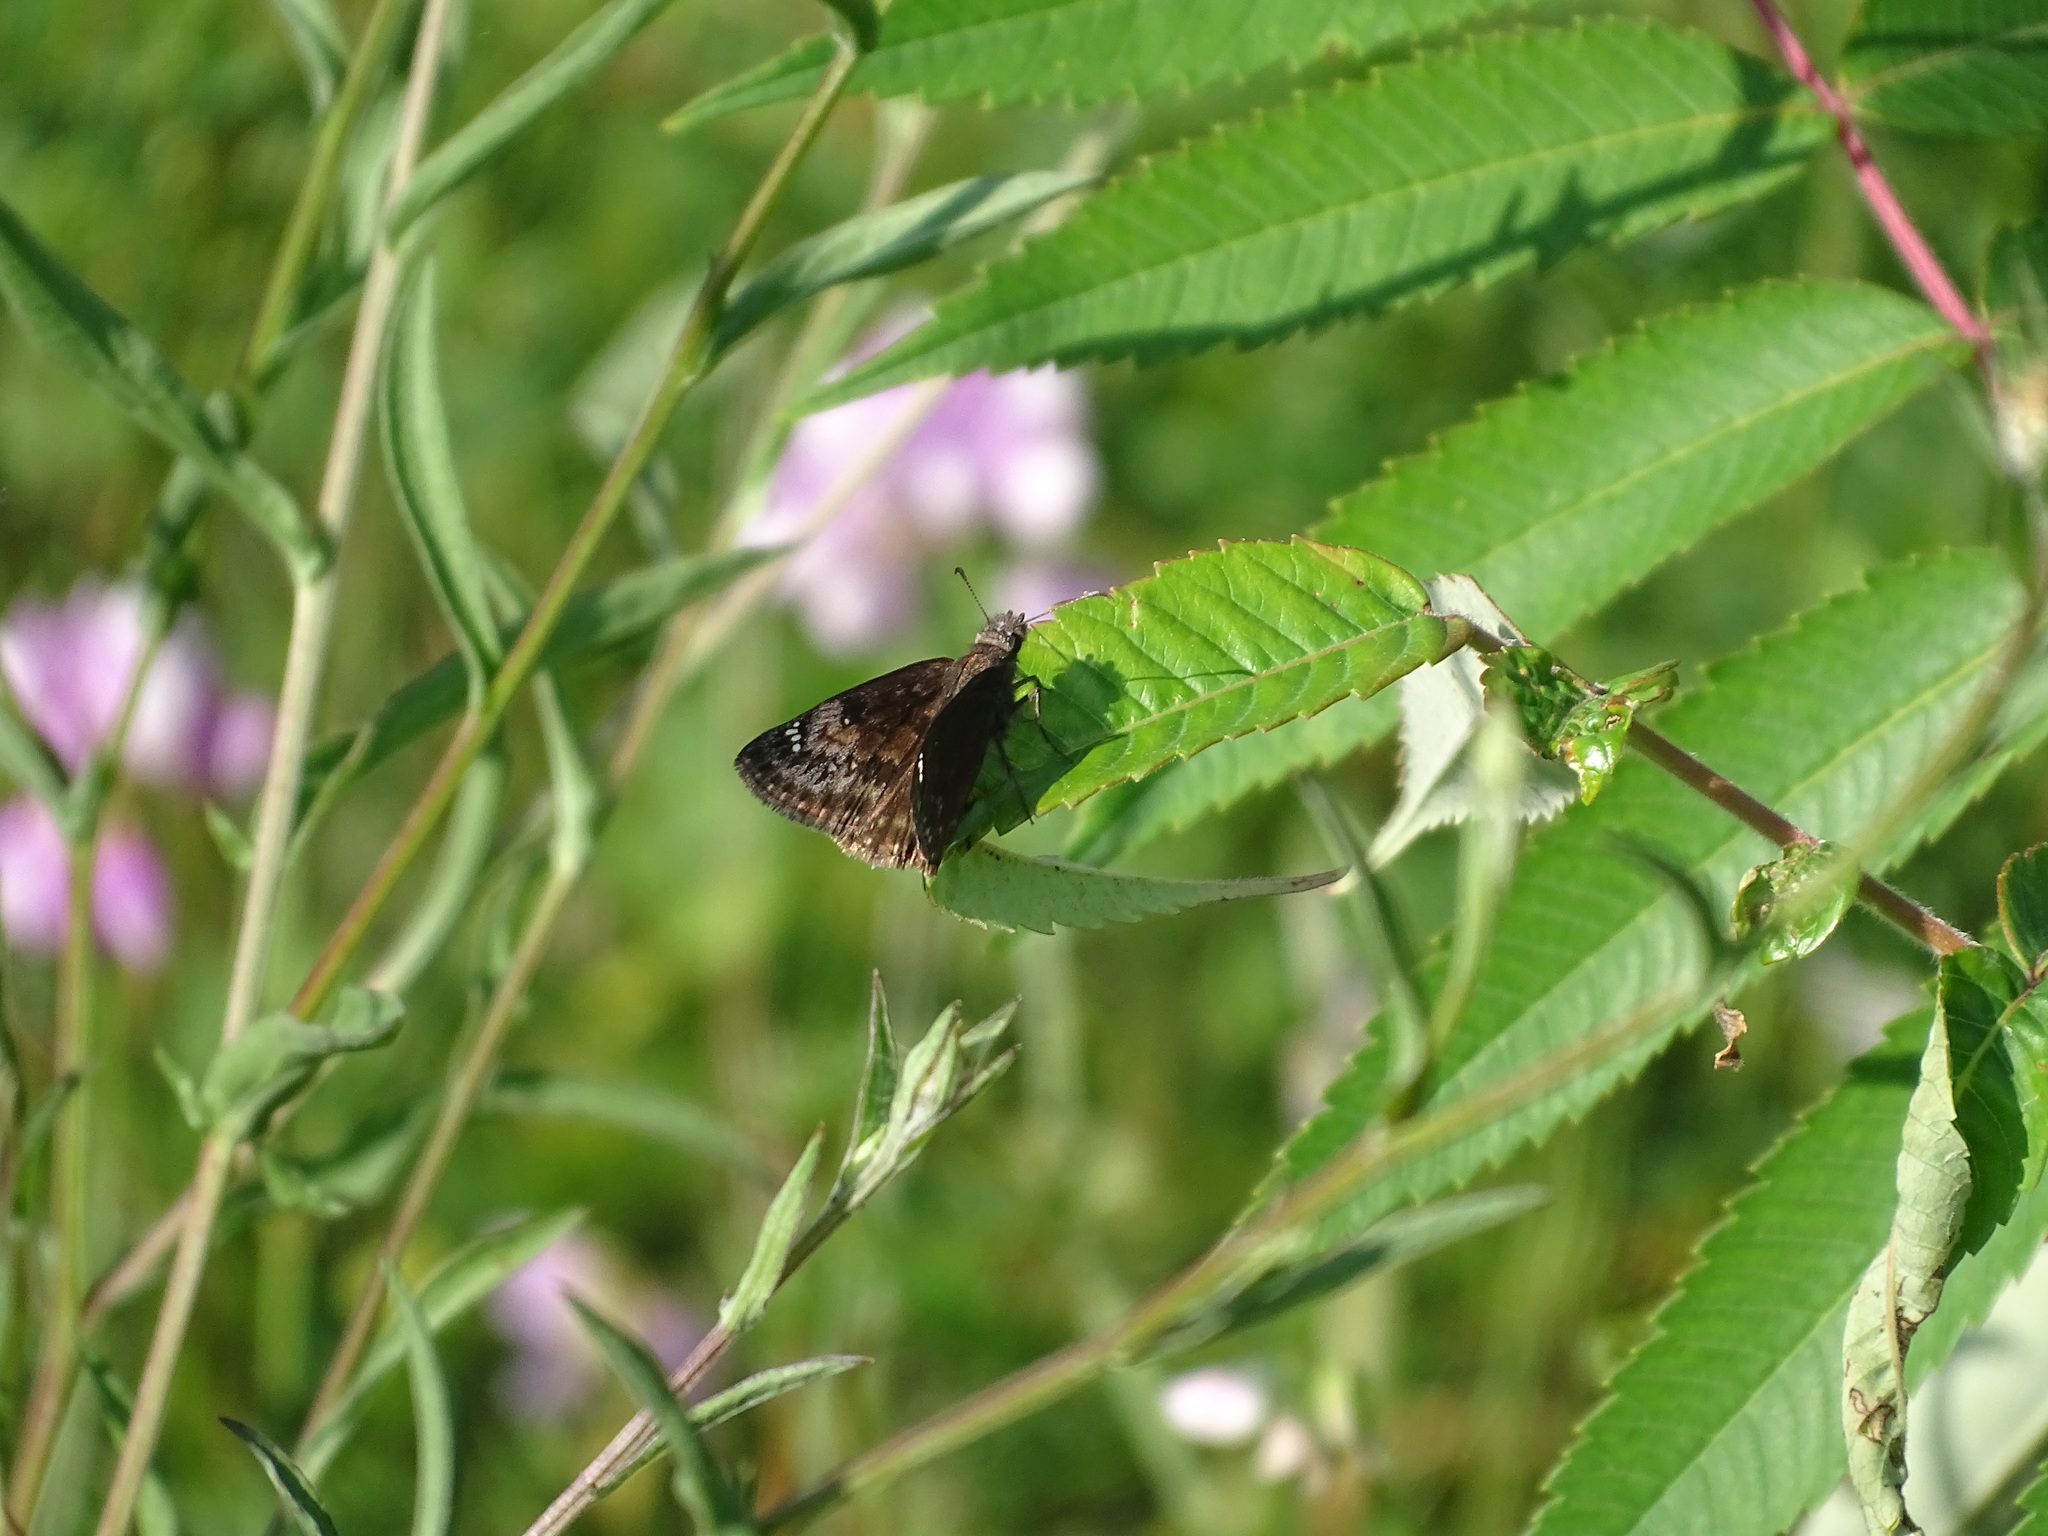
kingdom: Animalia
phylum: Arthropoda
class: Insecta
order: Lepidoptera
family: Hesperiidae
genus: Erynnis
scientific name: Erynnis baptisiae
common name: Wild indigo duskywing
